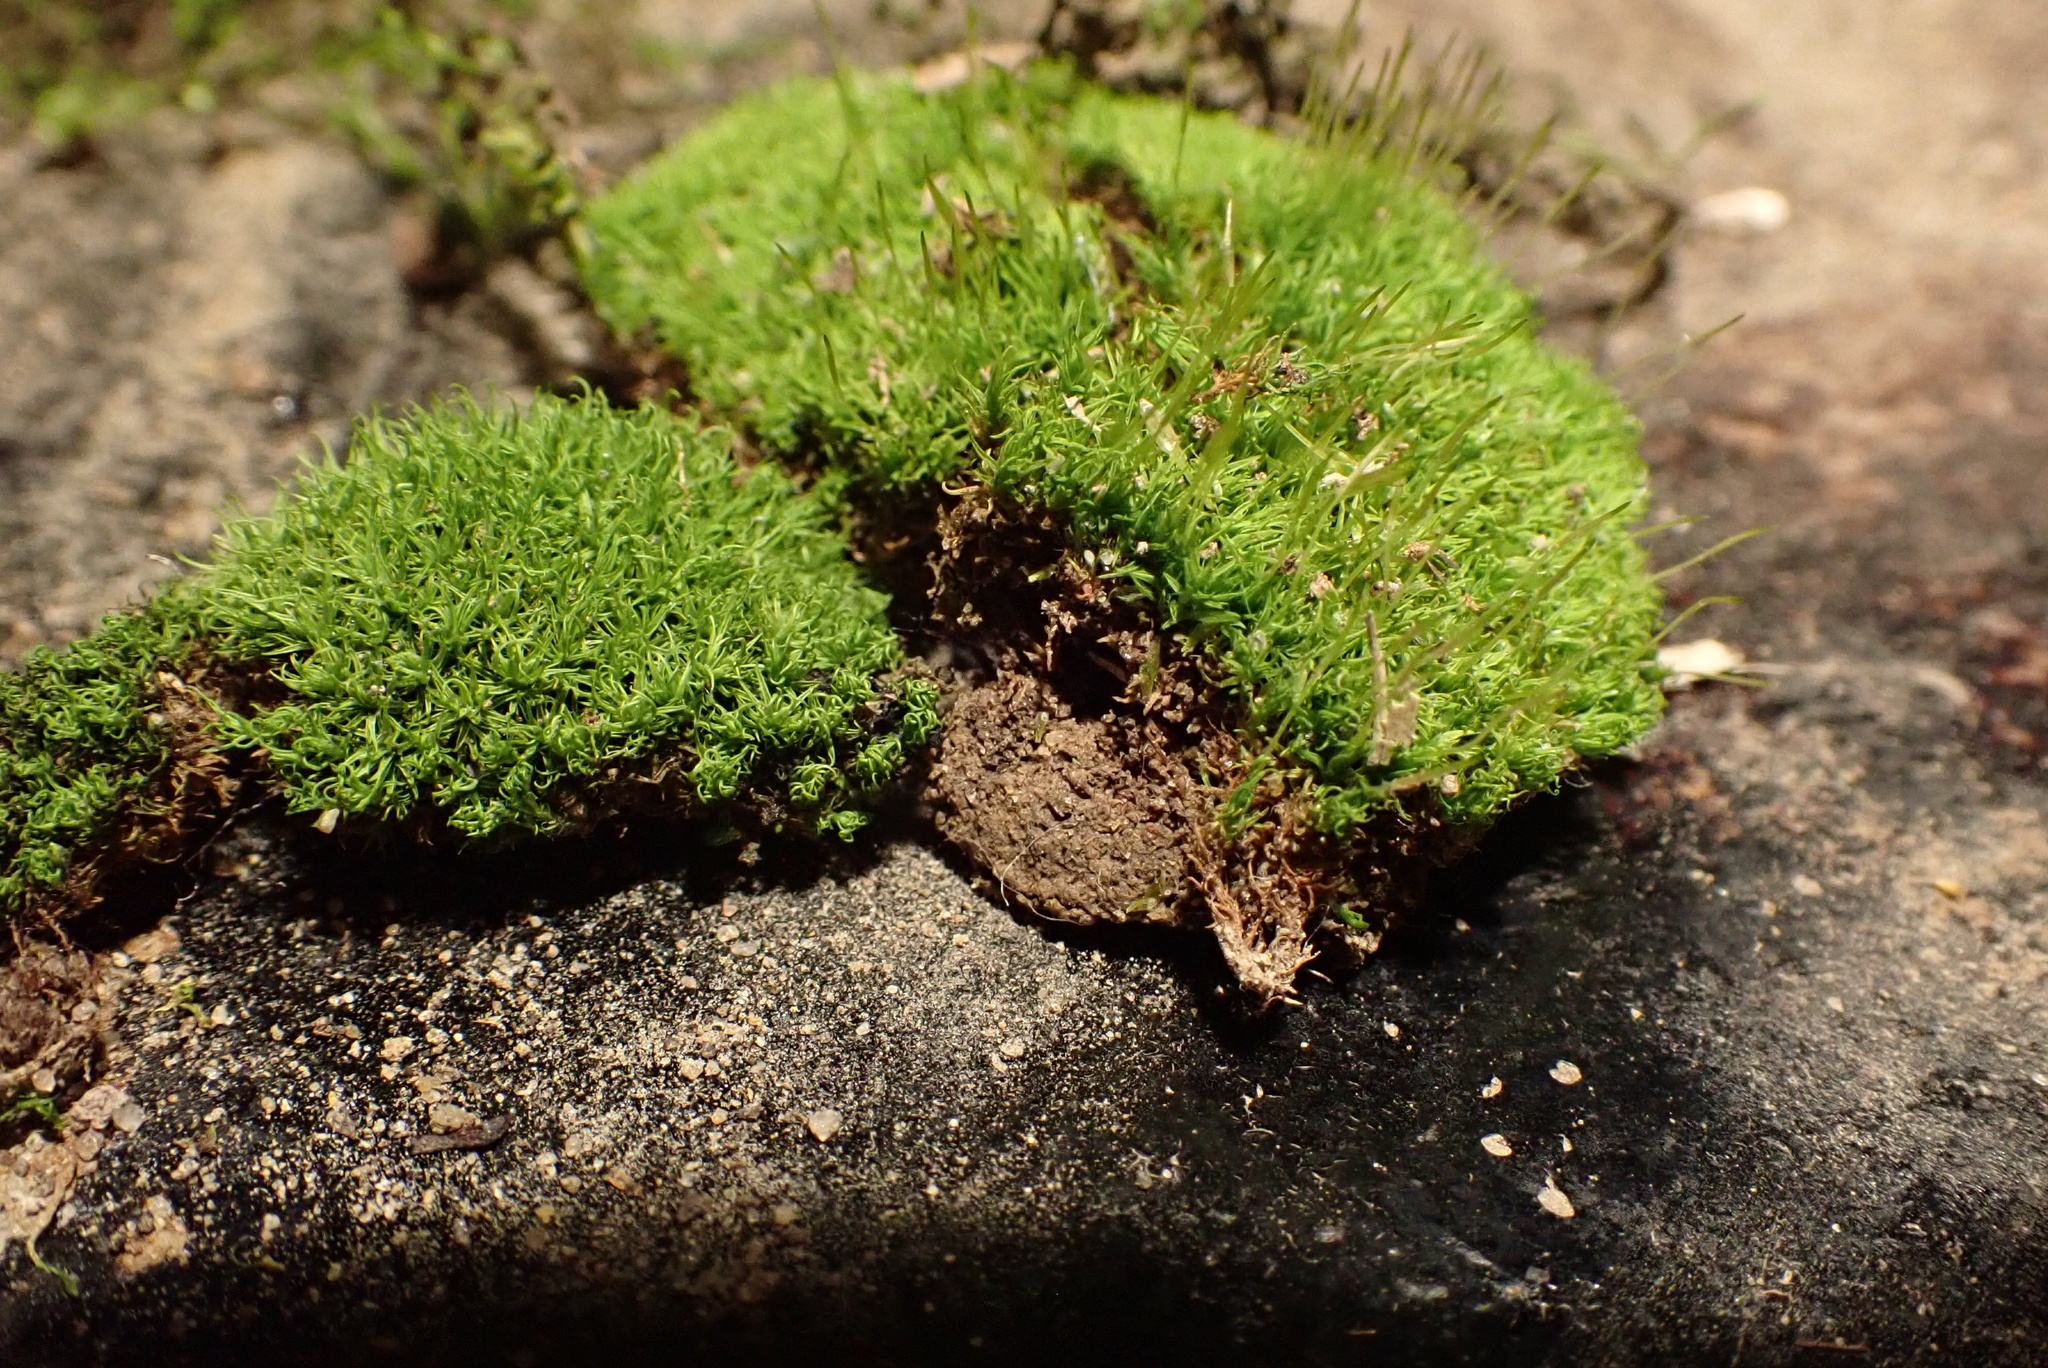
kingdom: Plantae
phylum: Bryophyta
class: Bryopsida
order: Pottiales
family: Pottiaceae
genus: Weissia
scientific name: Weissia controversa
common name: Green-tufted stubble moss
